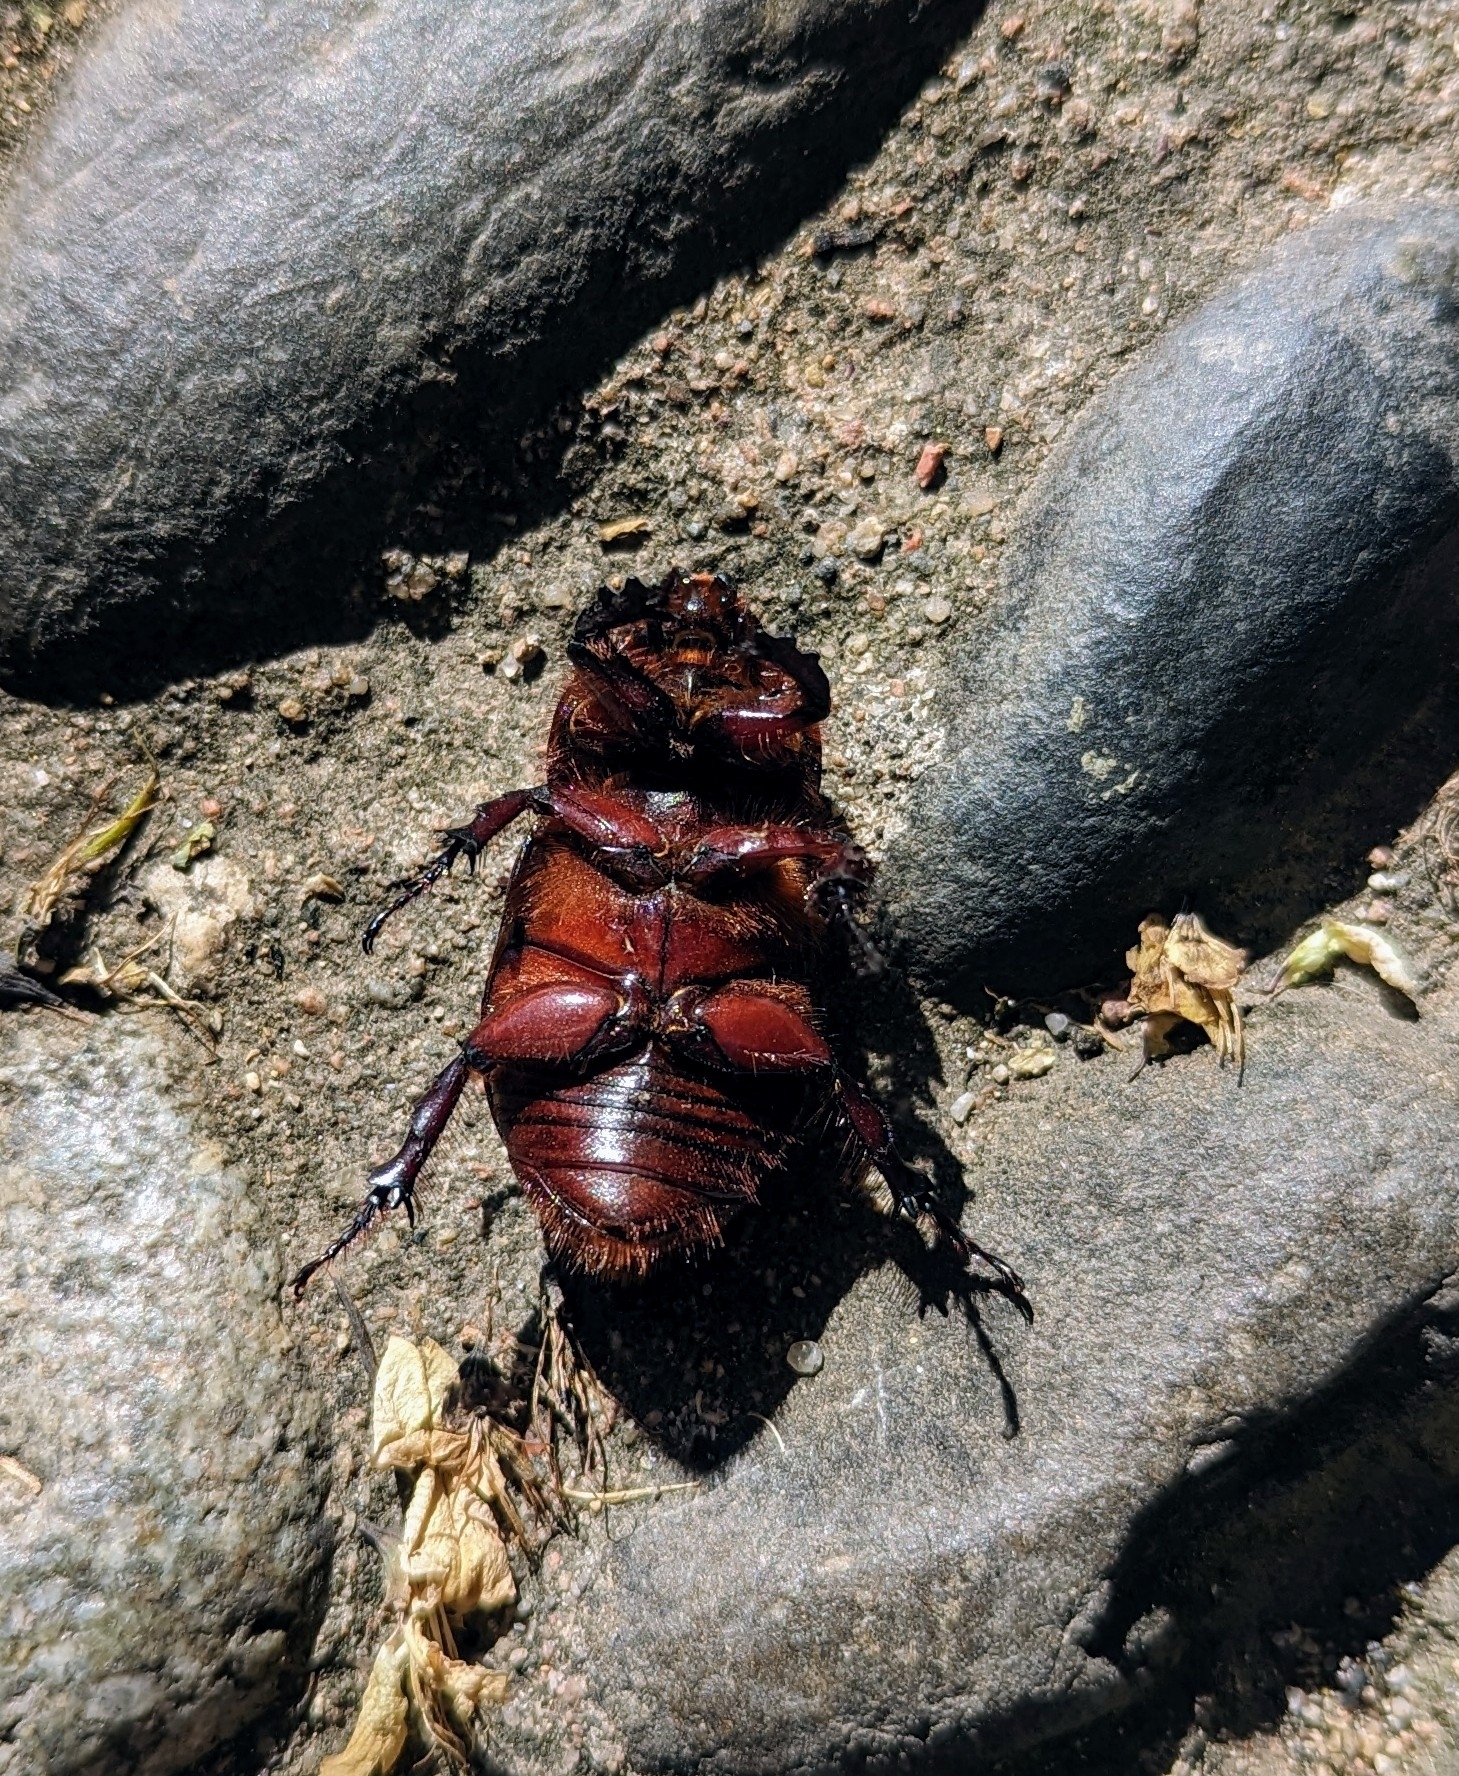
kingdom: Animalia
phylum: Arthropoda
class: Insecta
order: Coleoptera
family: Scarabaeidae
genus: Oryctes
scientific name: Oryctes nasicornis
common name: European rhinoceros beetle
